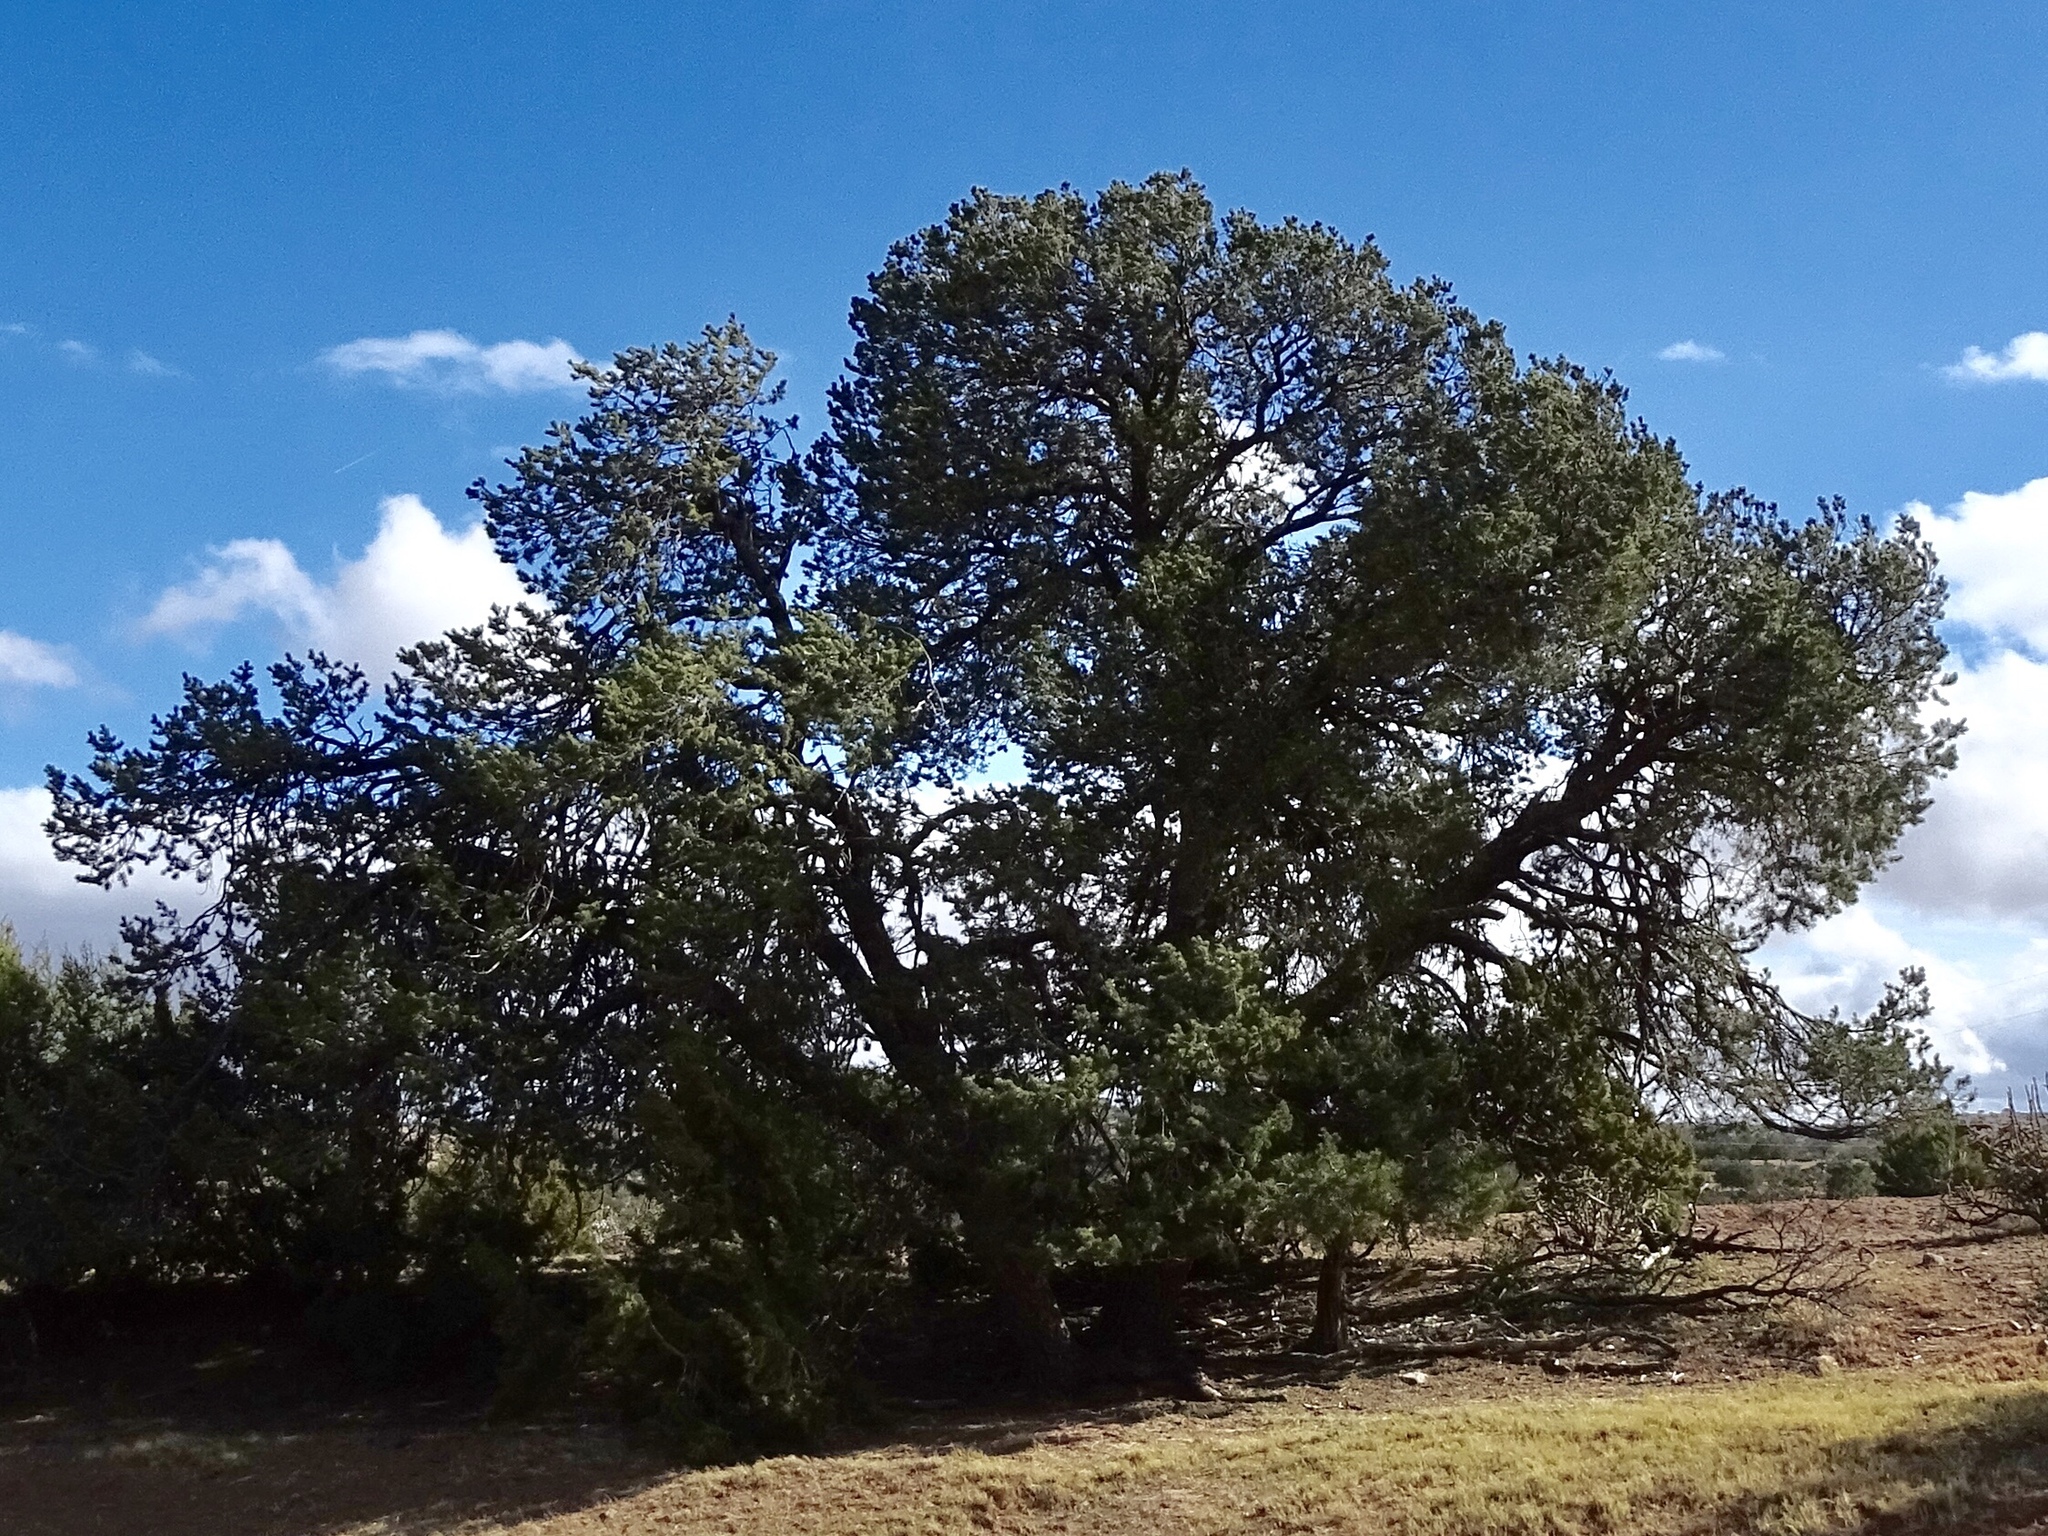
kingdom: Plantae
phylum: Tracheophyta
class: Pinopsida
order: Pinales
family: Pinaceae
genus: Pinus
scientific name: Pinus edulis
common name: Colorado pinyon
